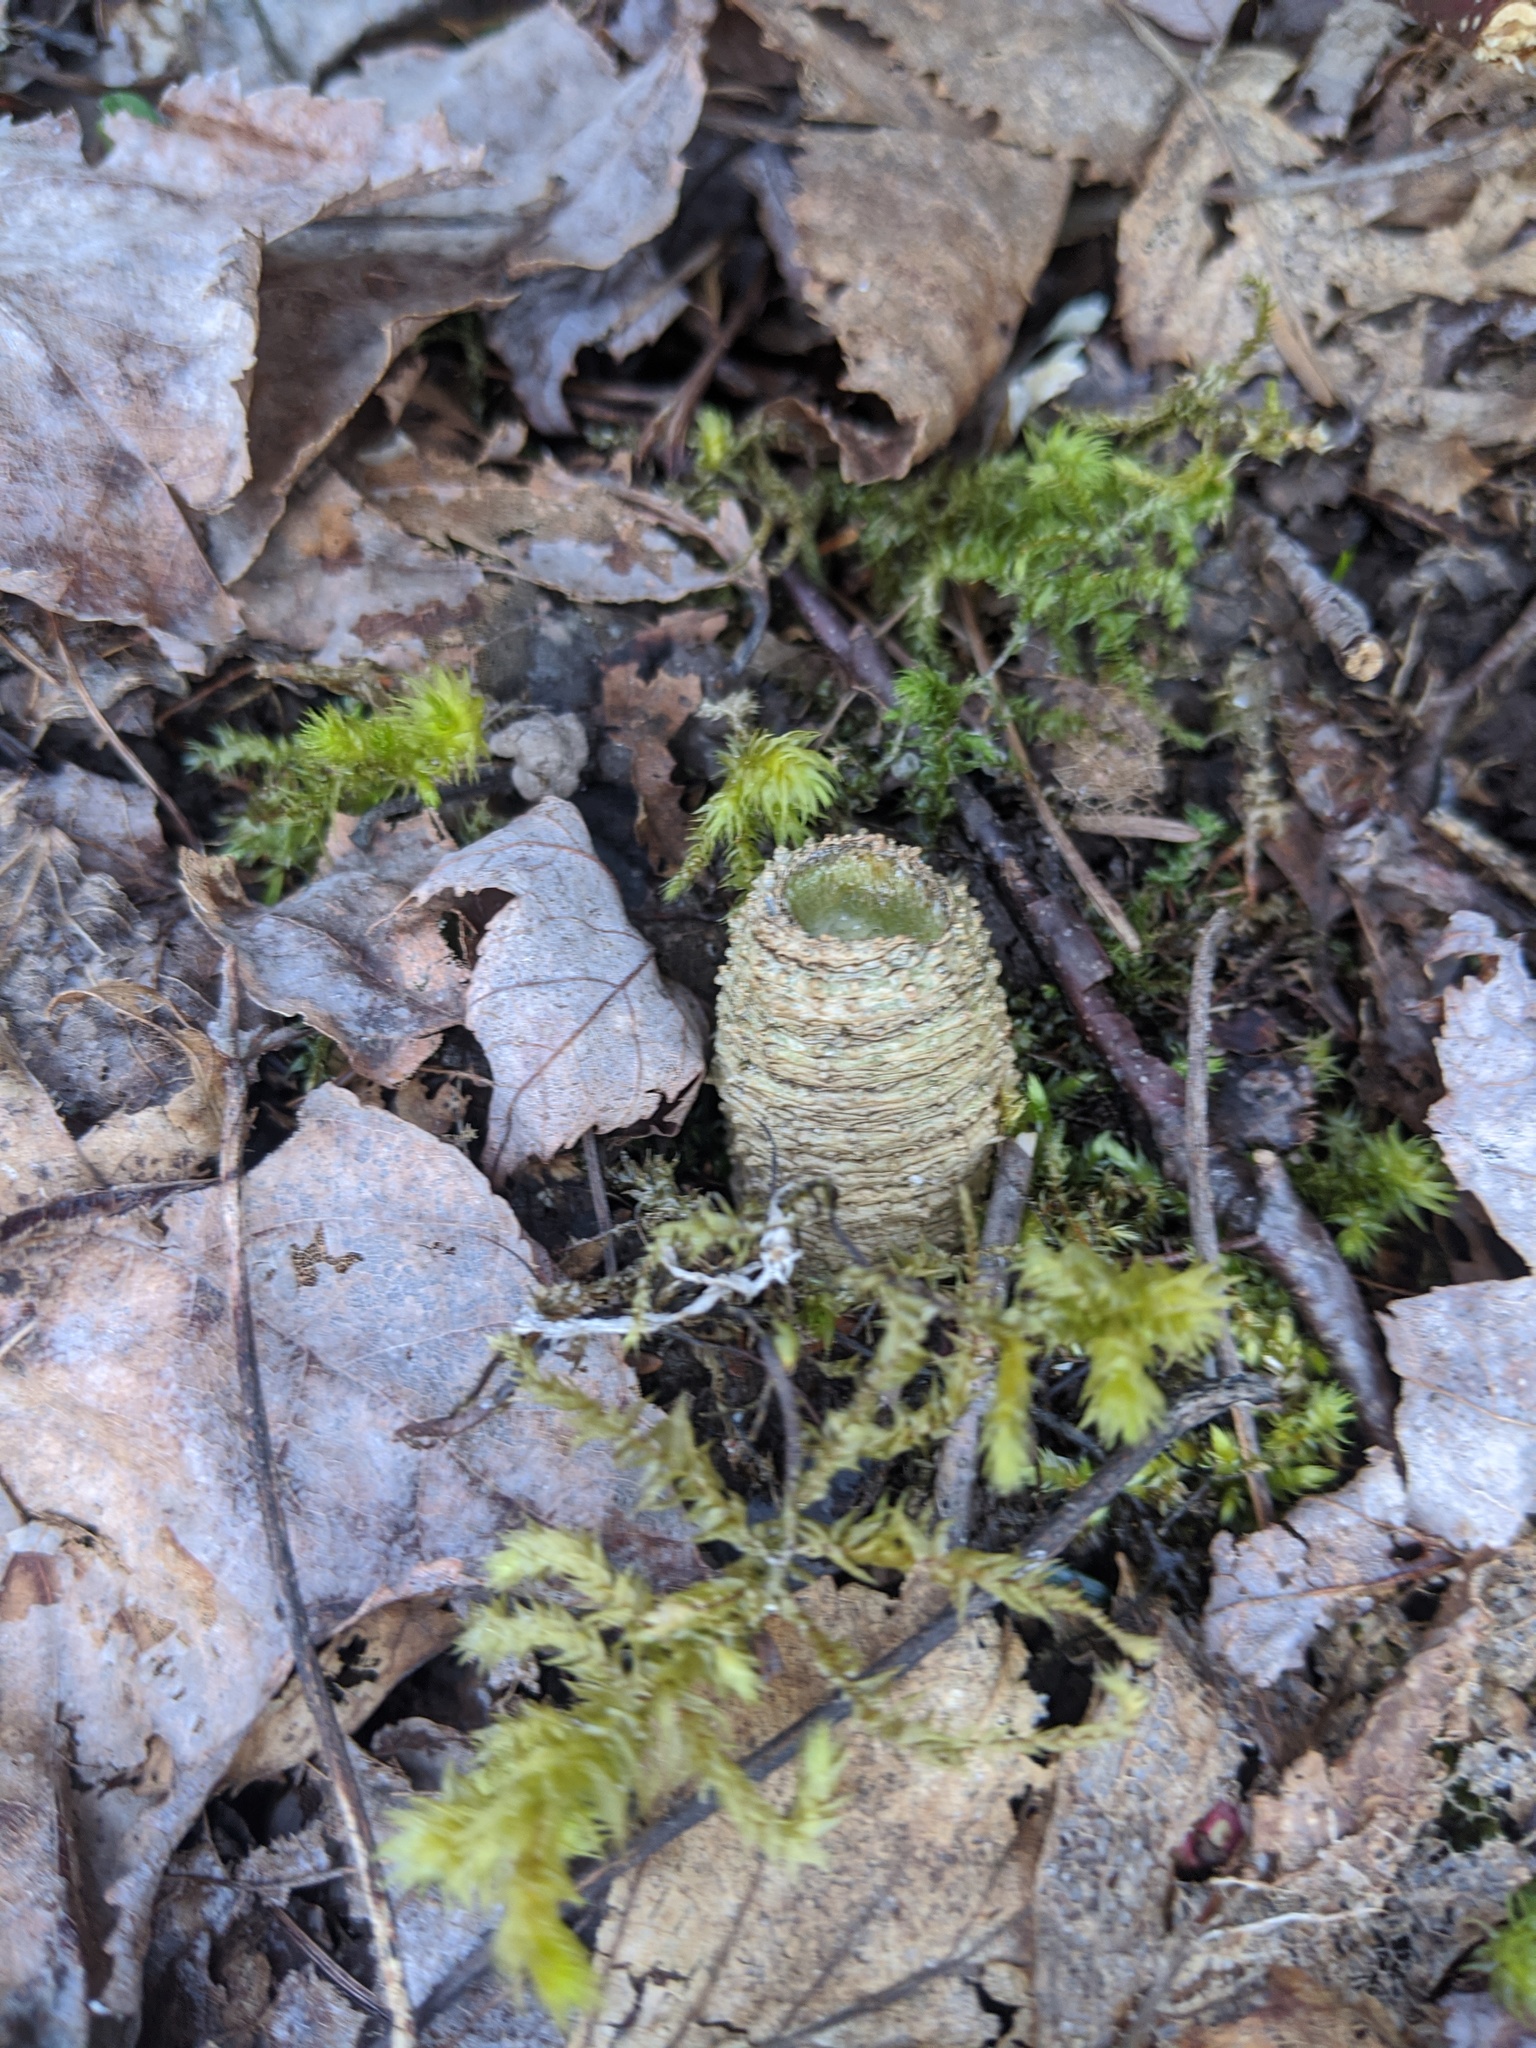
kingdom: Plantae
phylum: Tracheophyta
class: Magnoliopsida
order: Apiales
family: Araliaceae
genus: Aralia
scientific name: Aralia nudicaulis
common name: Wild sarsaparilla
